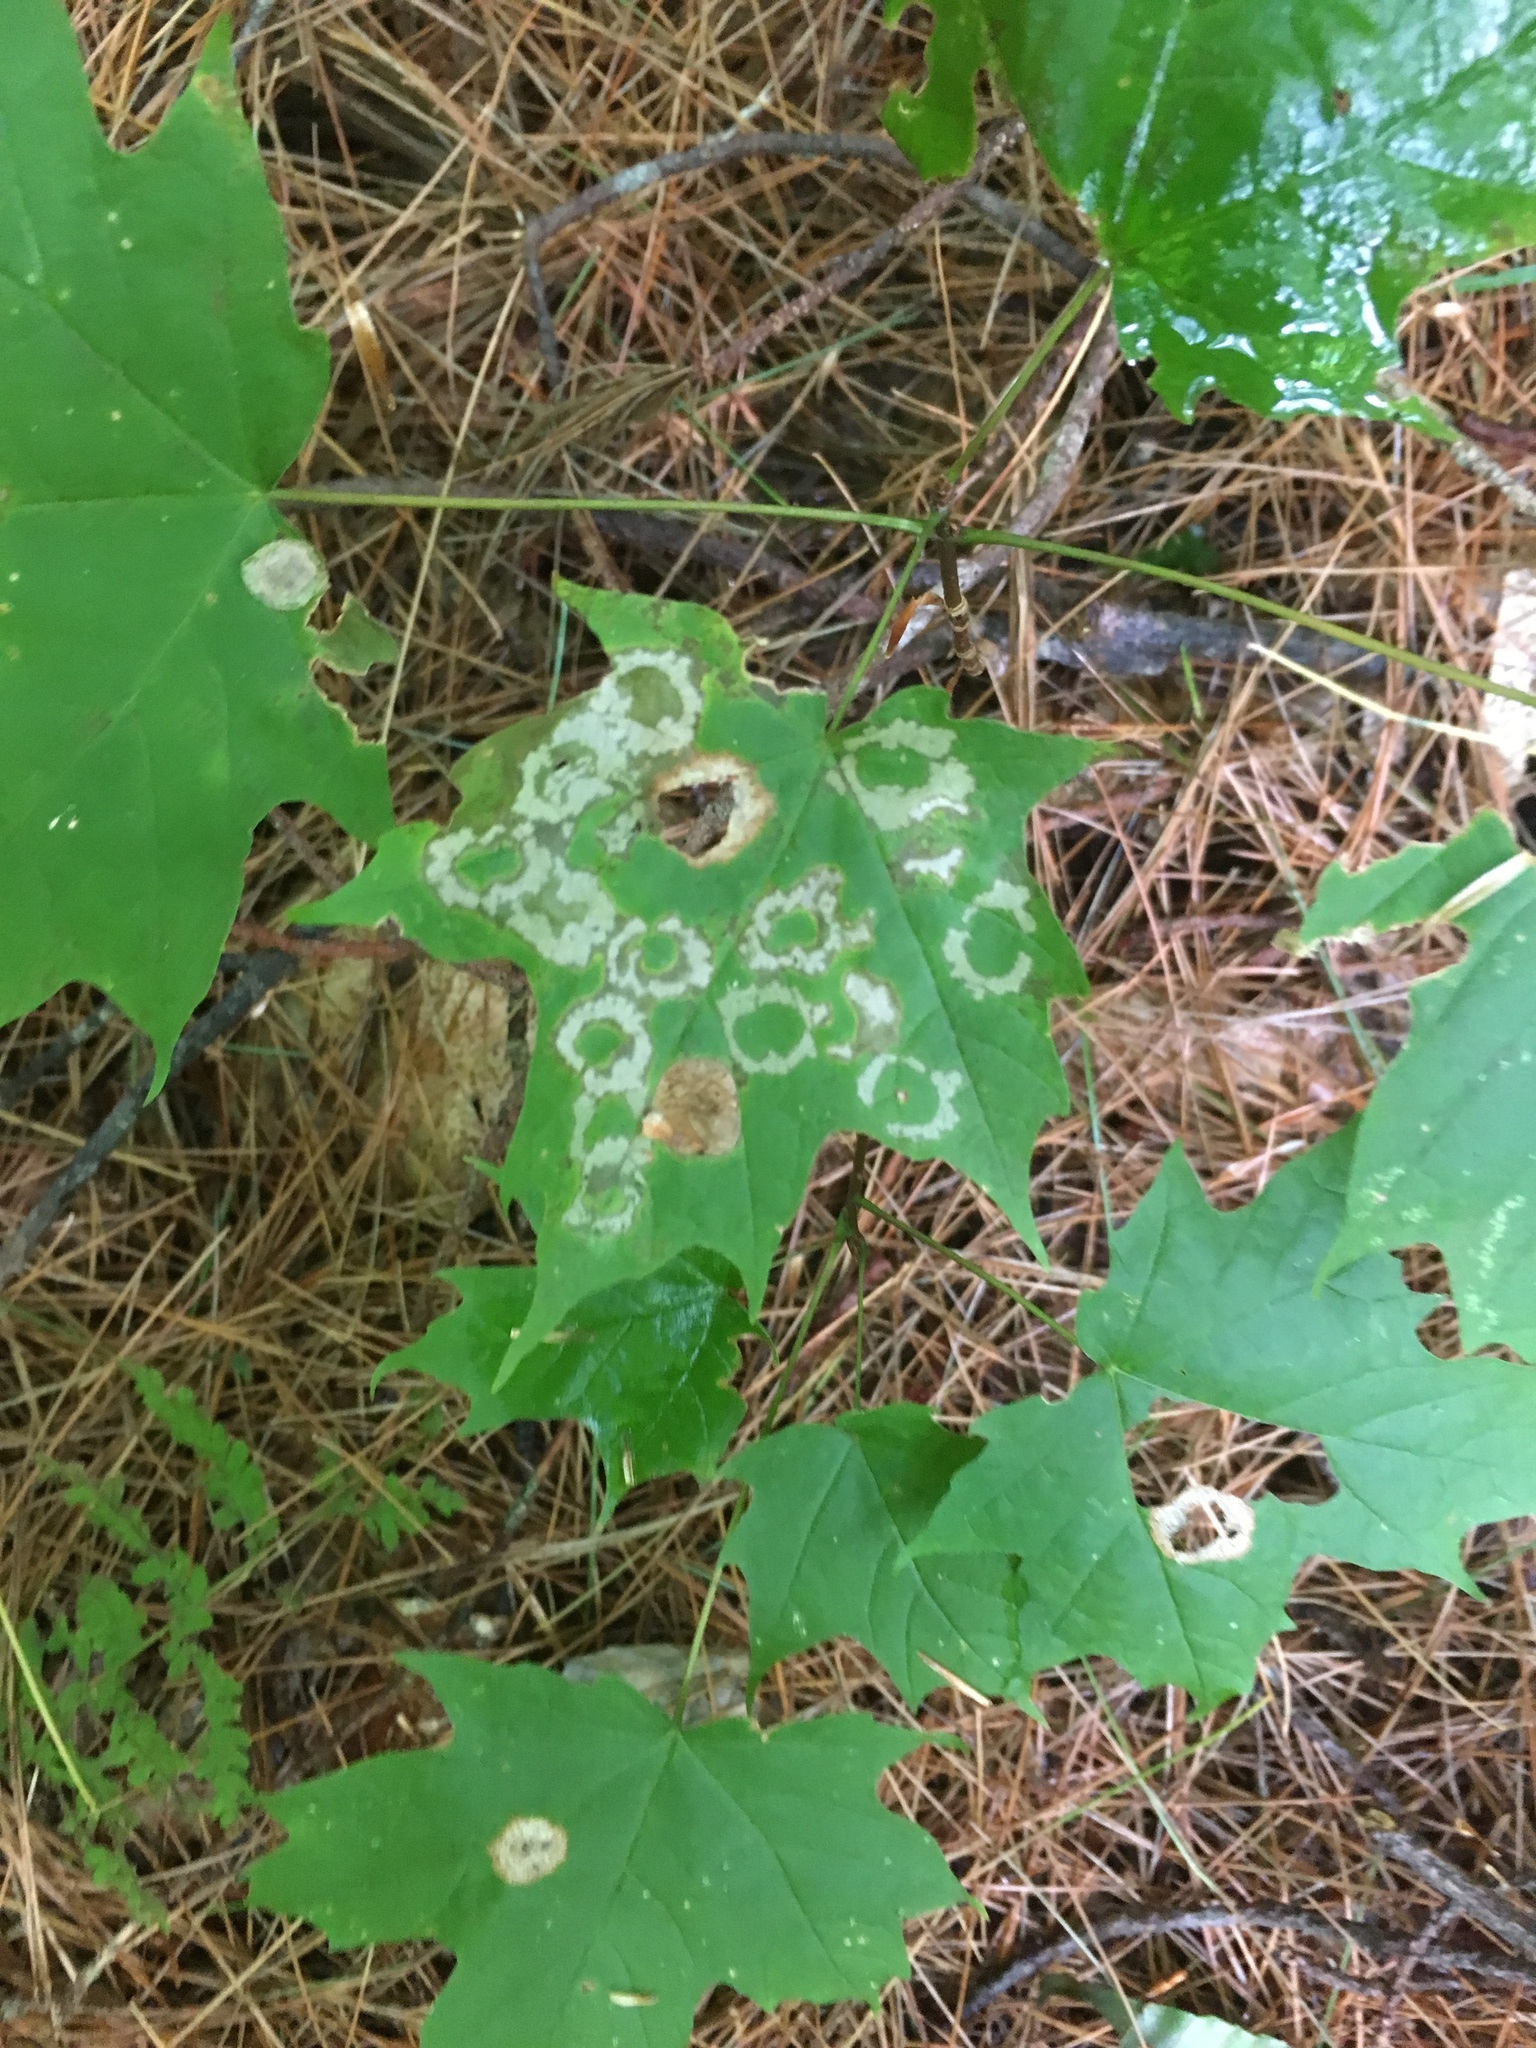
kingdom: Animalia
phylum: Arthropoda
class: Insecta
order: Lepidoptera
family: Incurvariidae
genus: Paraclemensia
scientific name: Paraclemensia acerifoliella
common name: Maple leafcutter
